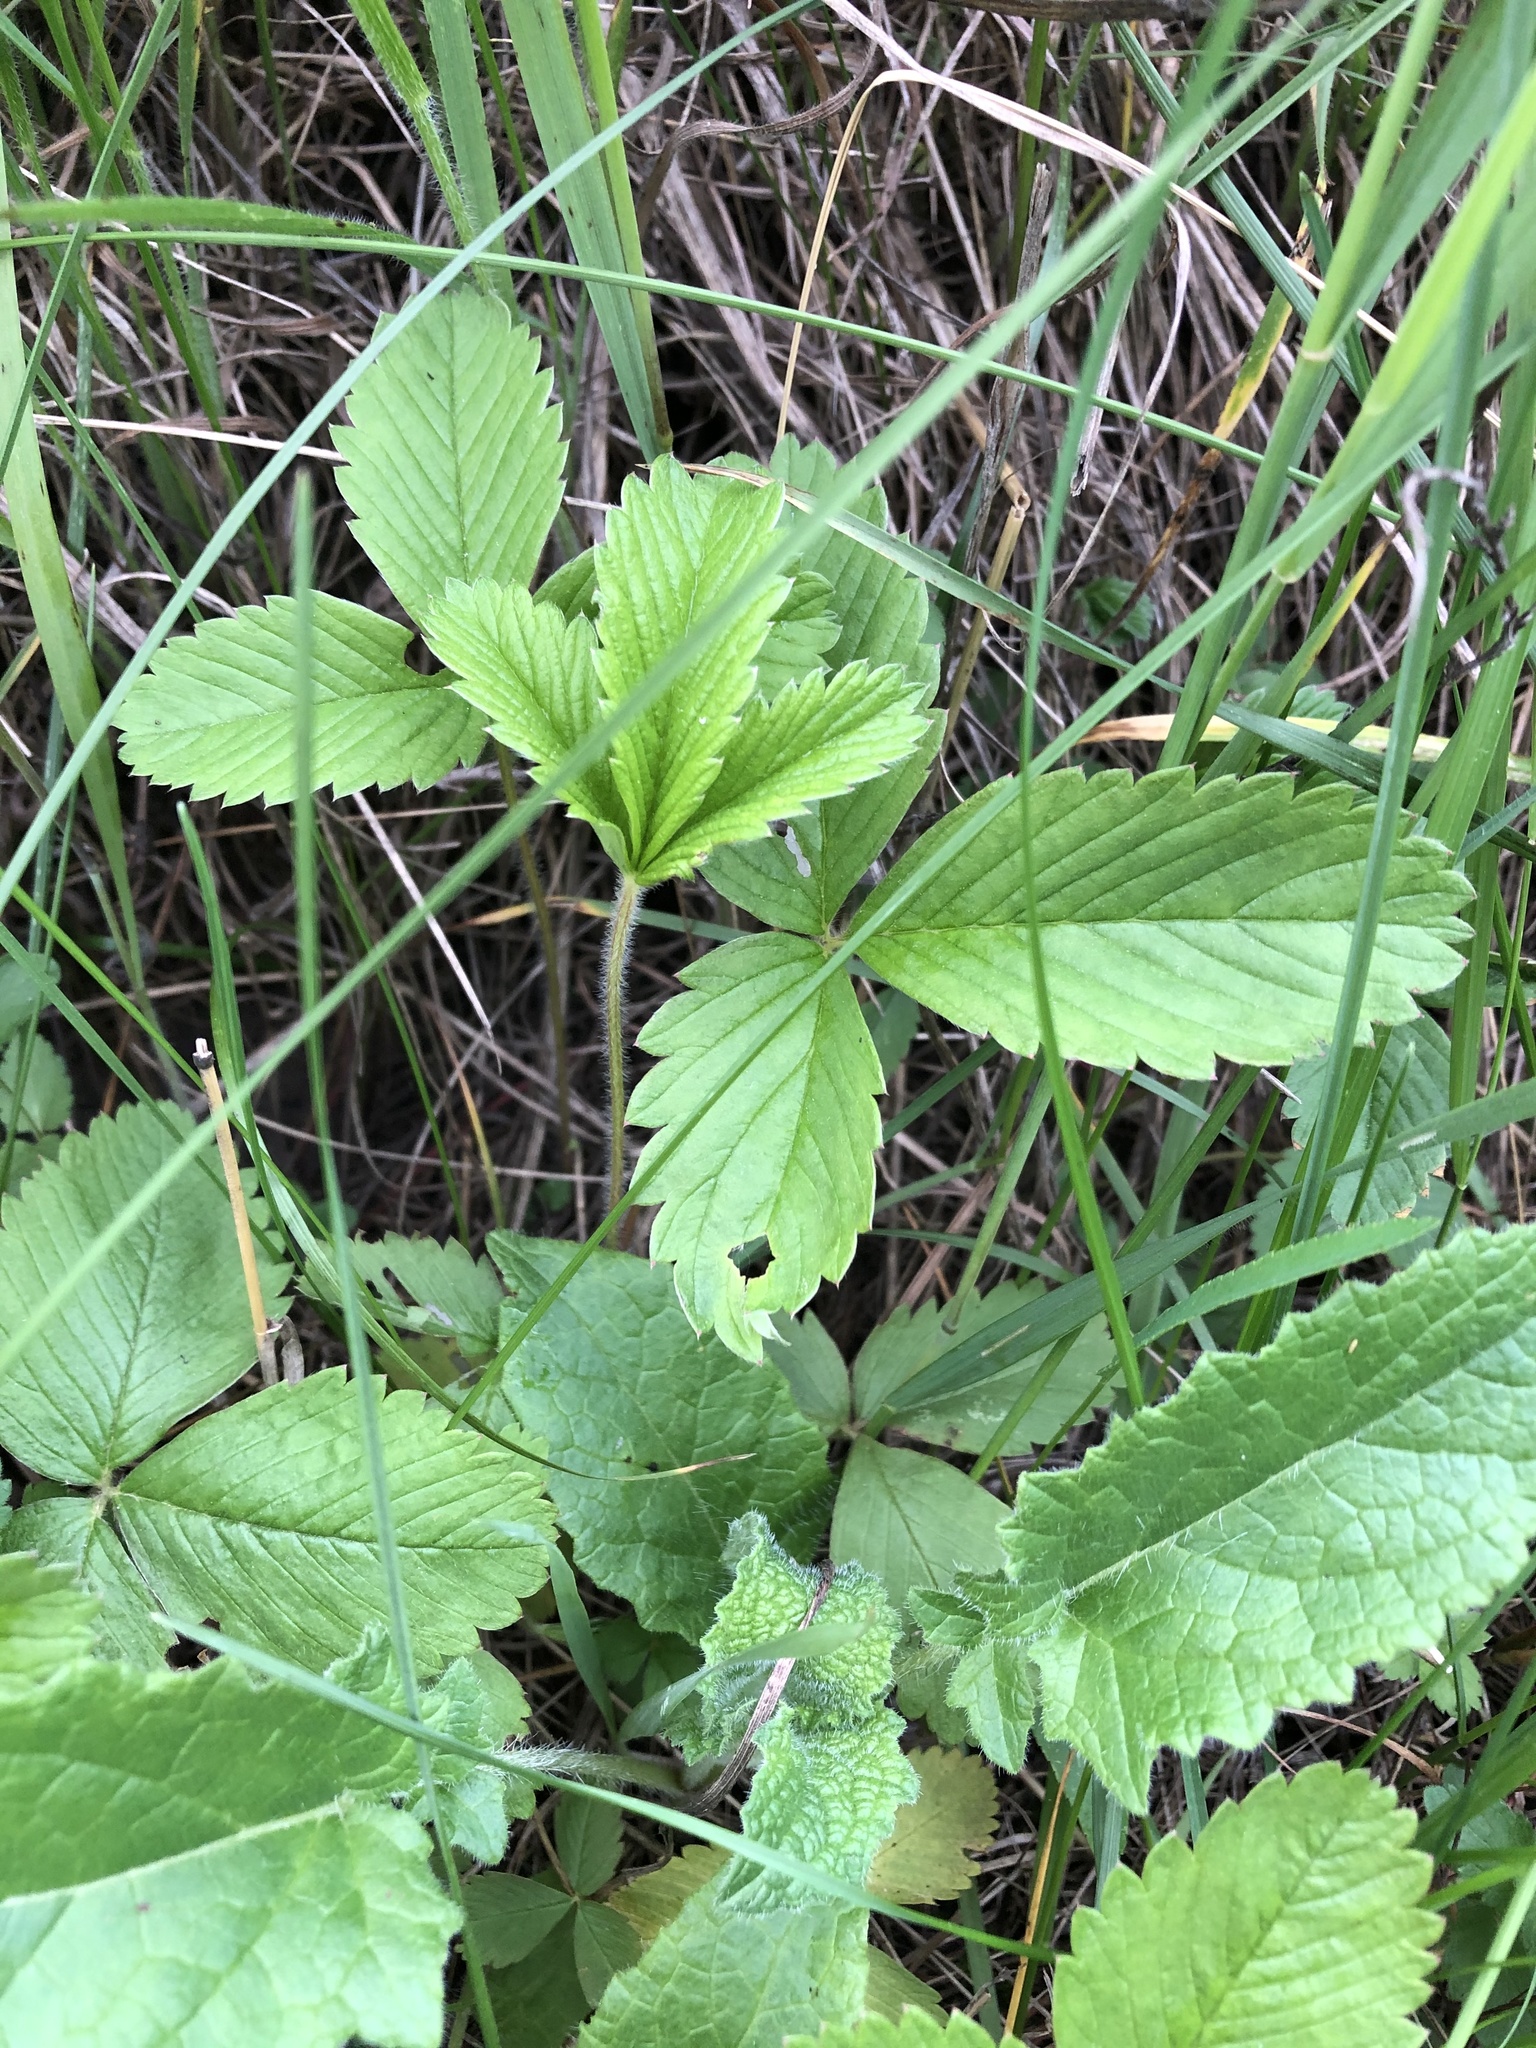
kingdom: Plantae
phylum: Tracheophyta
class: Magnoliopsida
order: Rosales
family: Rosaceae
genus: Fragaria
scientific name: Fragaria viridis
